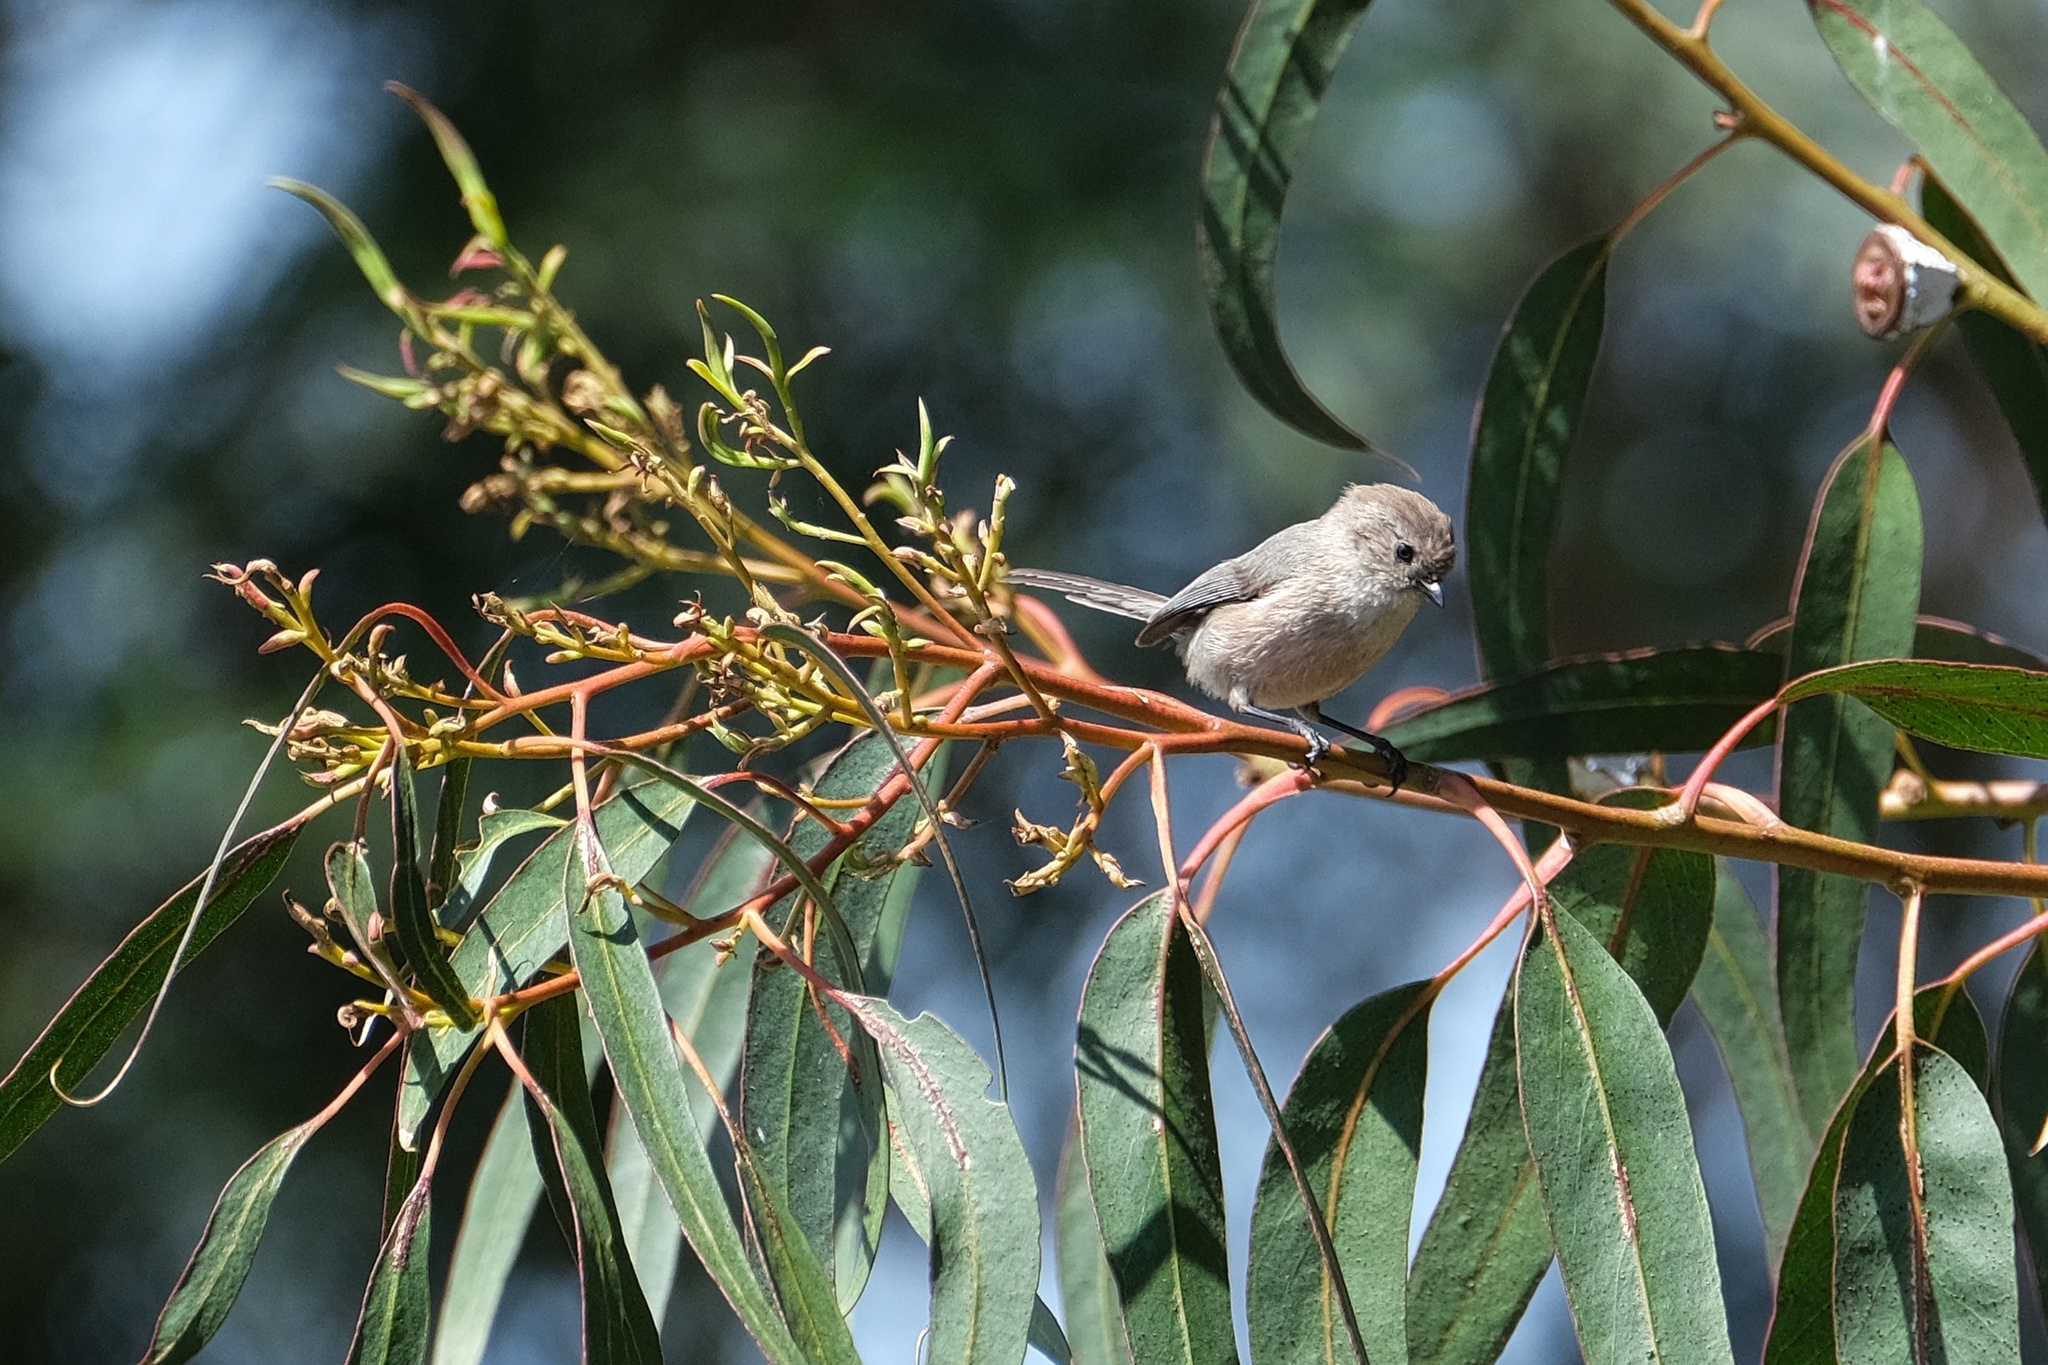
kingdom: Animalia
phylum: Chordata
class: Aves
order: Passeriformes
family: Aegithalidae
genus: Psaltriparus
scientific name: Psaltriparus minimus
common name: American bushtit
